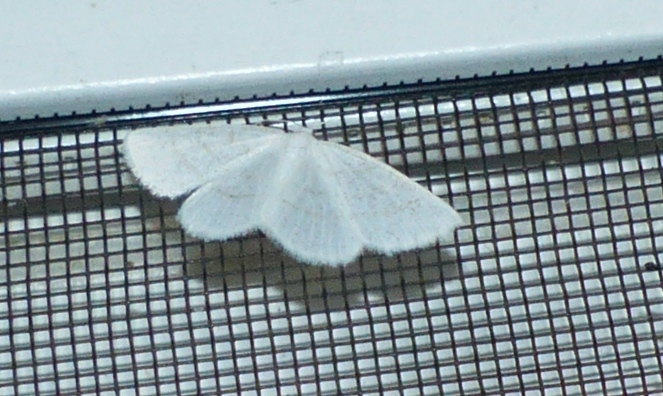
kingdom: Animalia
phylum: Arthropoda
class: Insecta
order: Lepidoptera
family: Geometridae
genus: Cabera
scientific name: Cabera erythemaria
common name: Yellow-dusted cream moth
